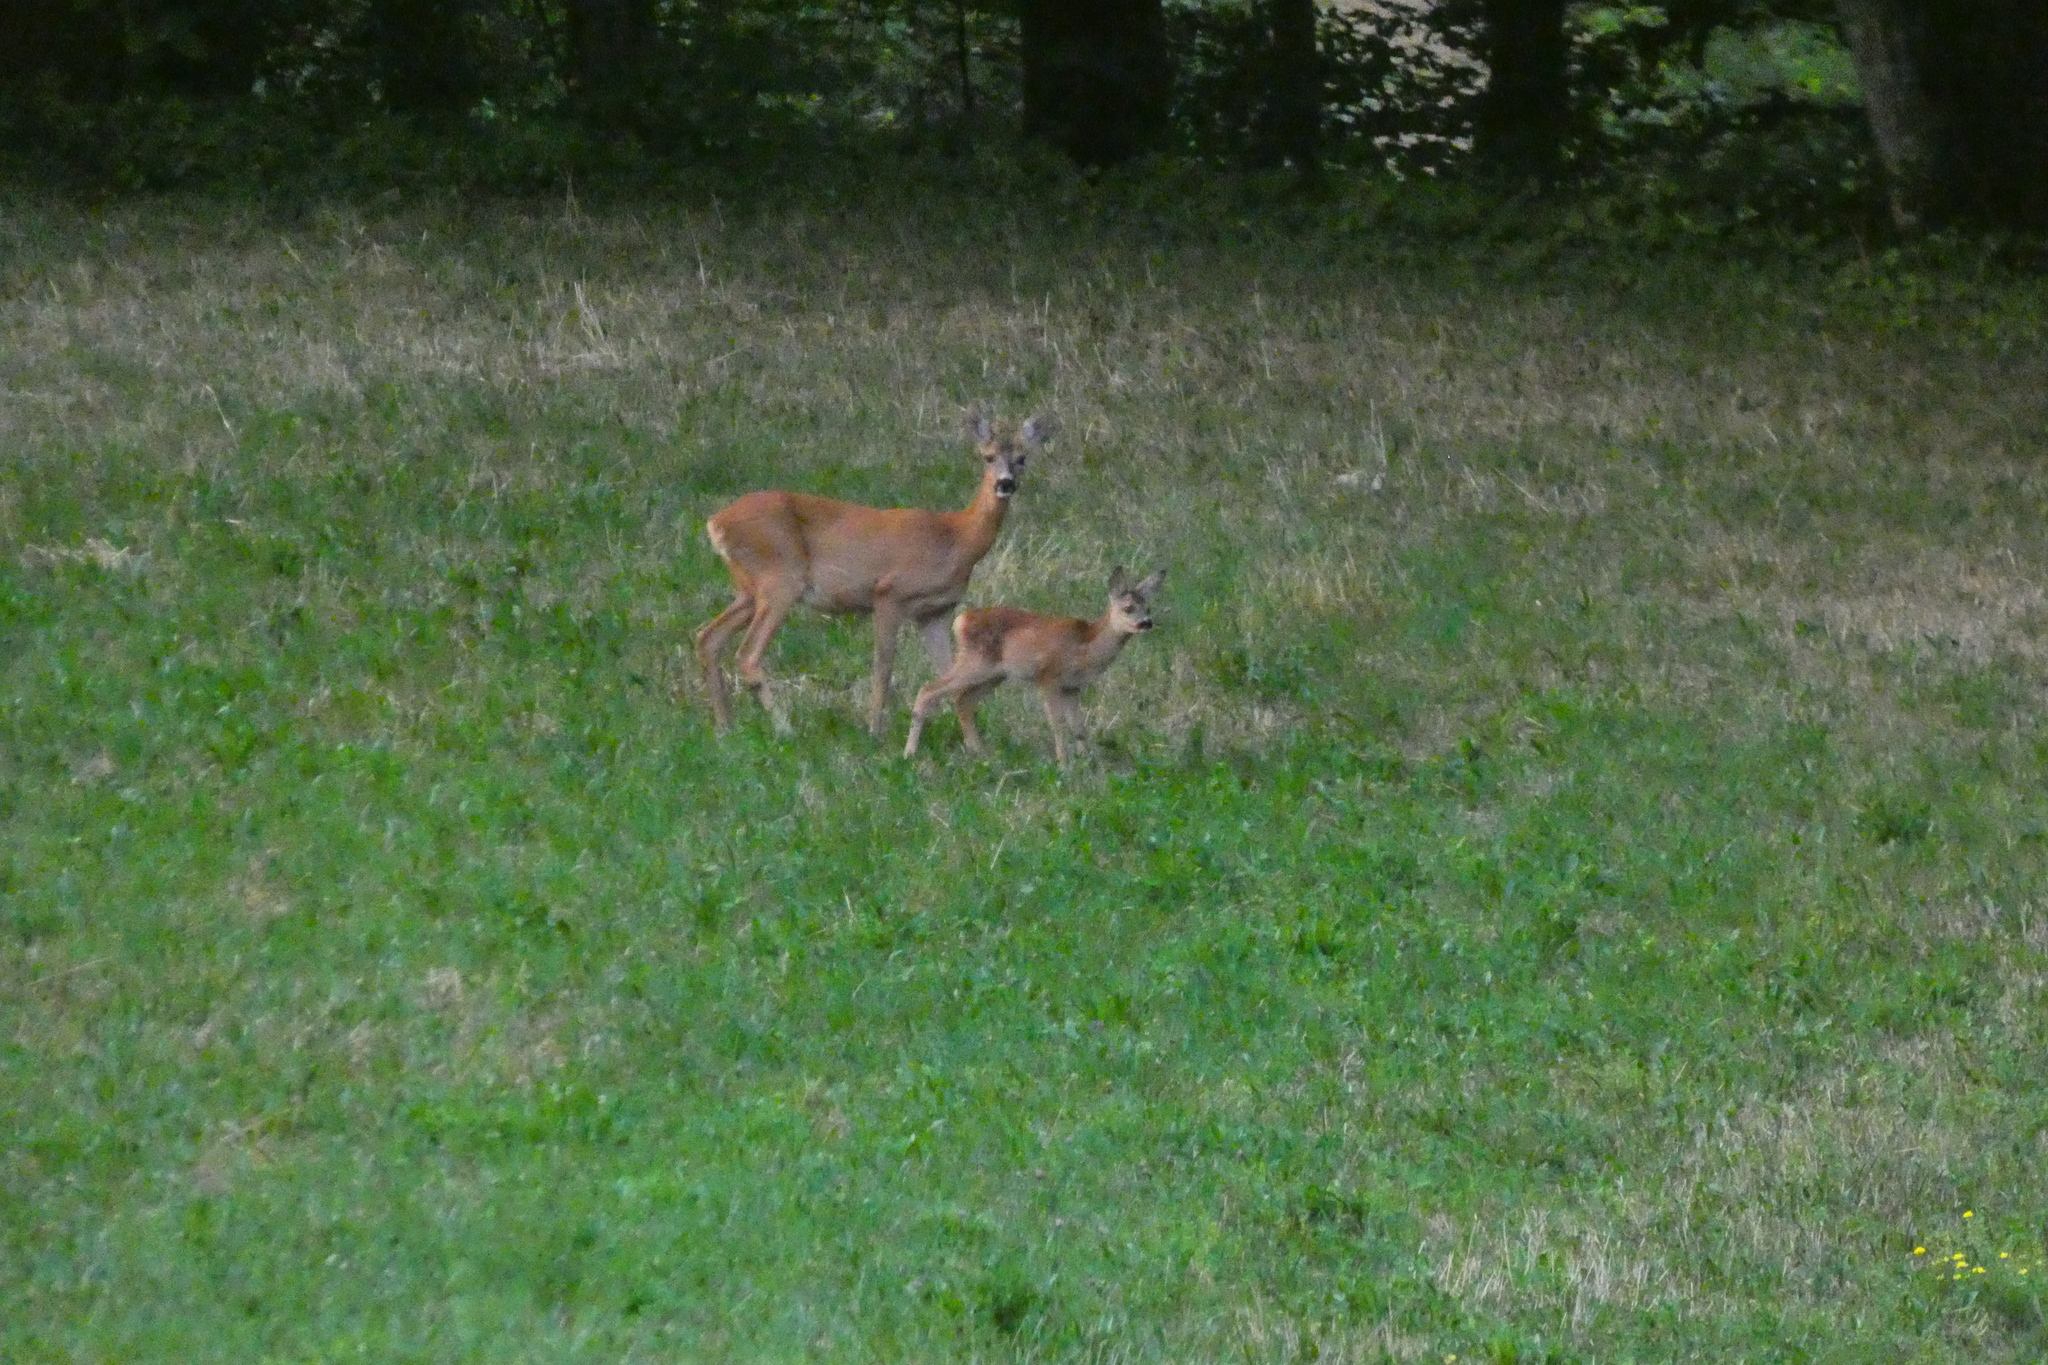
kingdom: Animalia
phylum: Chordata
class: Mammalia
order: Artiodactyla
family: Cervidae
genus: Capreolus
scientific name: Capreolus capreolus
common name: Western roe deer
